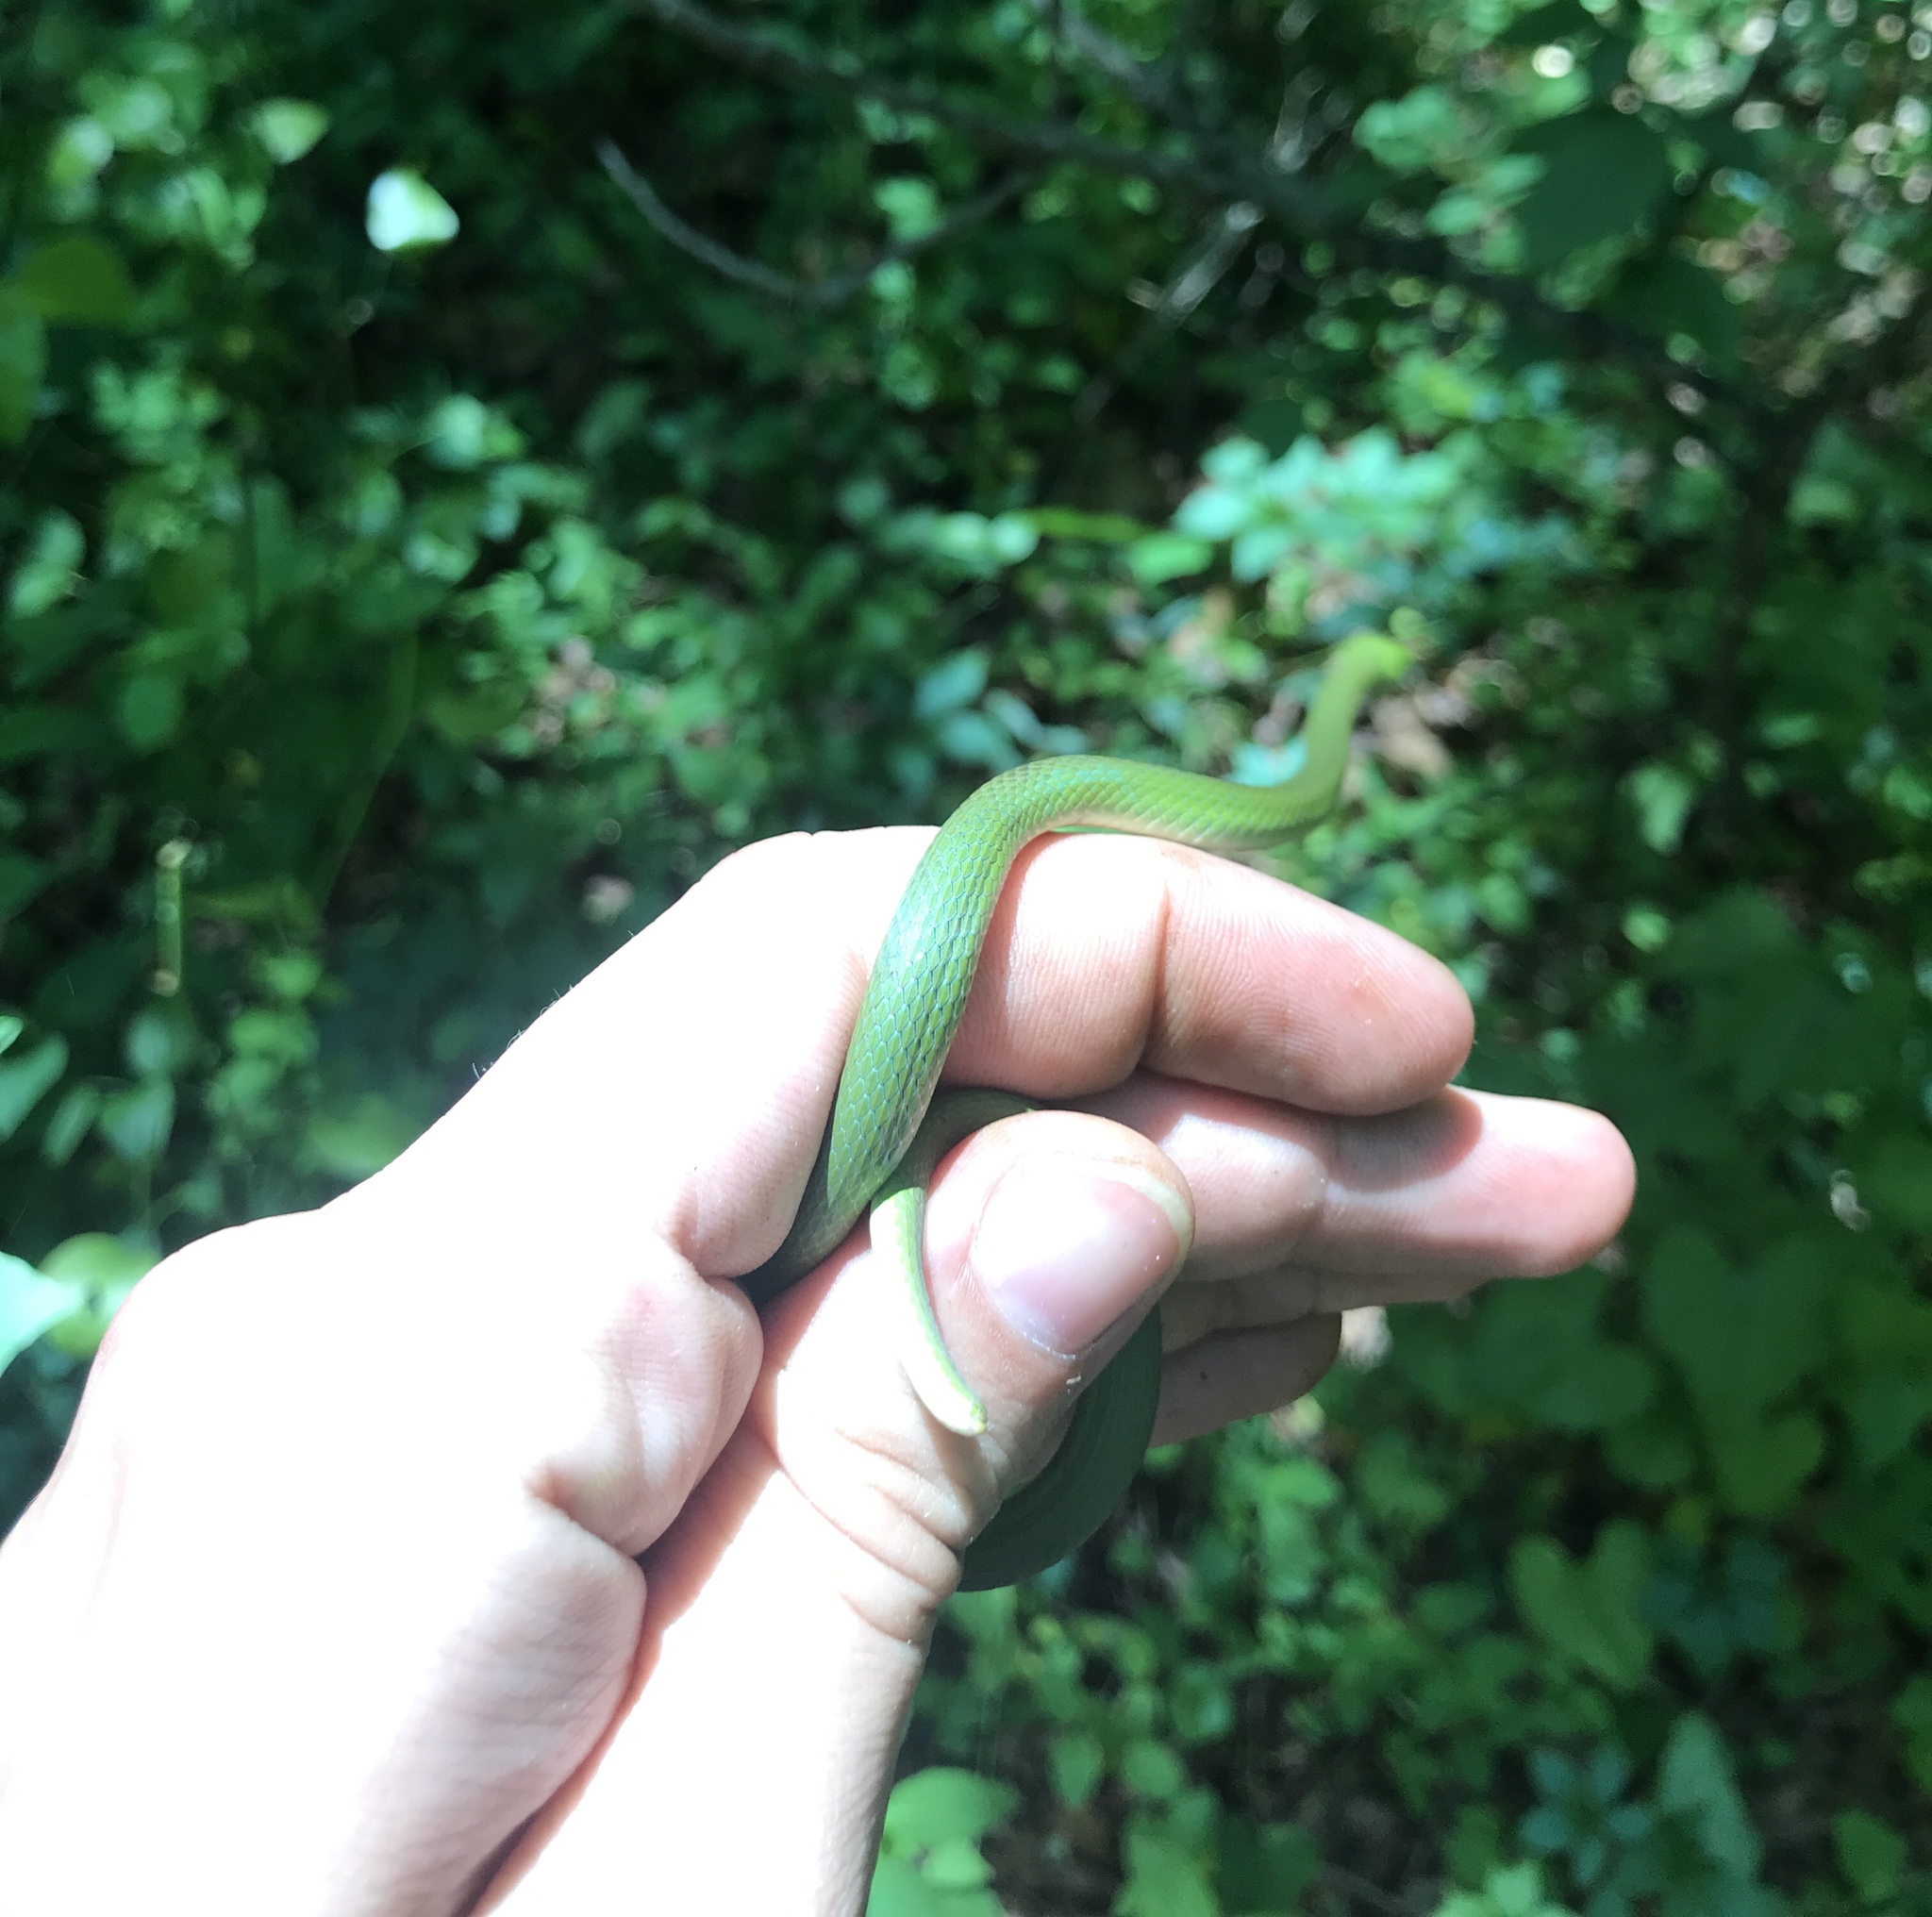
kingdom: Animalia
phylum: Chordata
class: Squamata
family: Colubridae
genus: Opheodrys
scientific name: Opheodrys aestivus
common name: Rough greensnake
